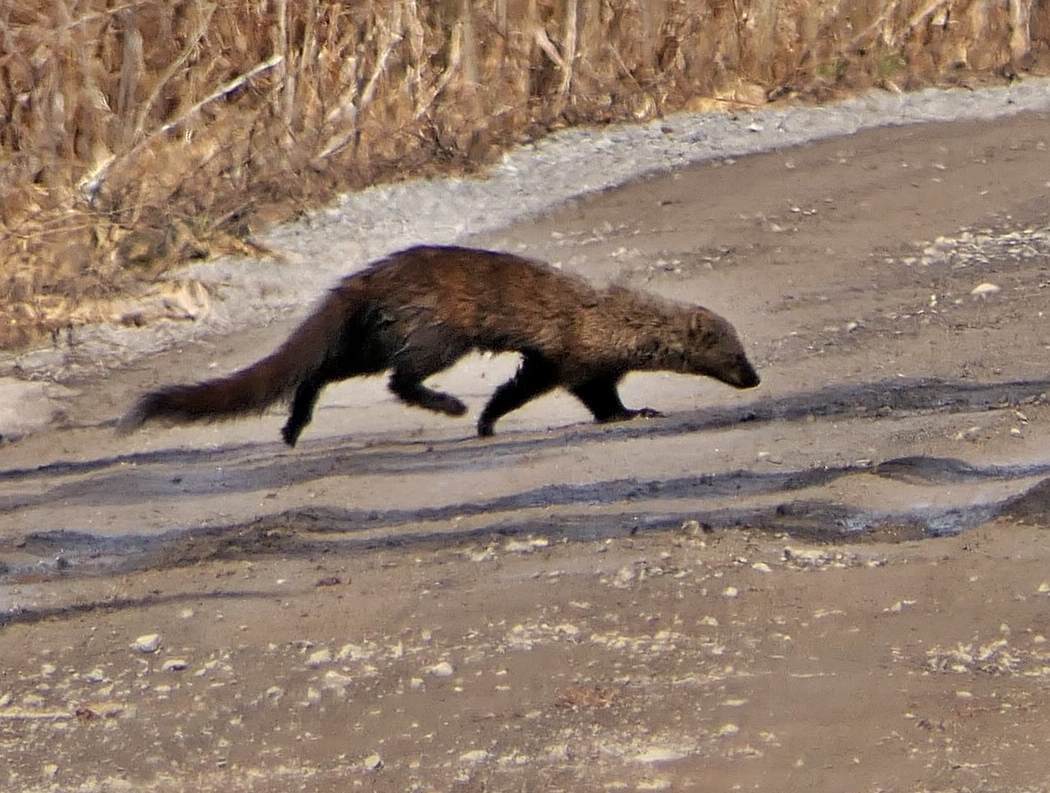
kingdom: Animalia
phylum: Chordata
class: Mammalia
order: Carnivora
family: Mustelidae
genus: Pekania
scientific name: Pekania pennanti
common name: Fisher
